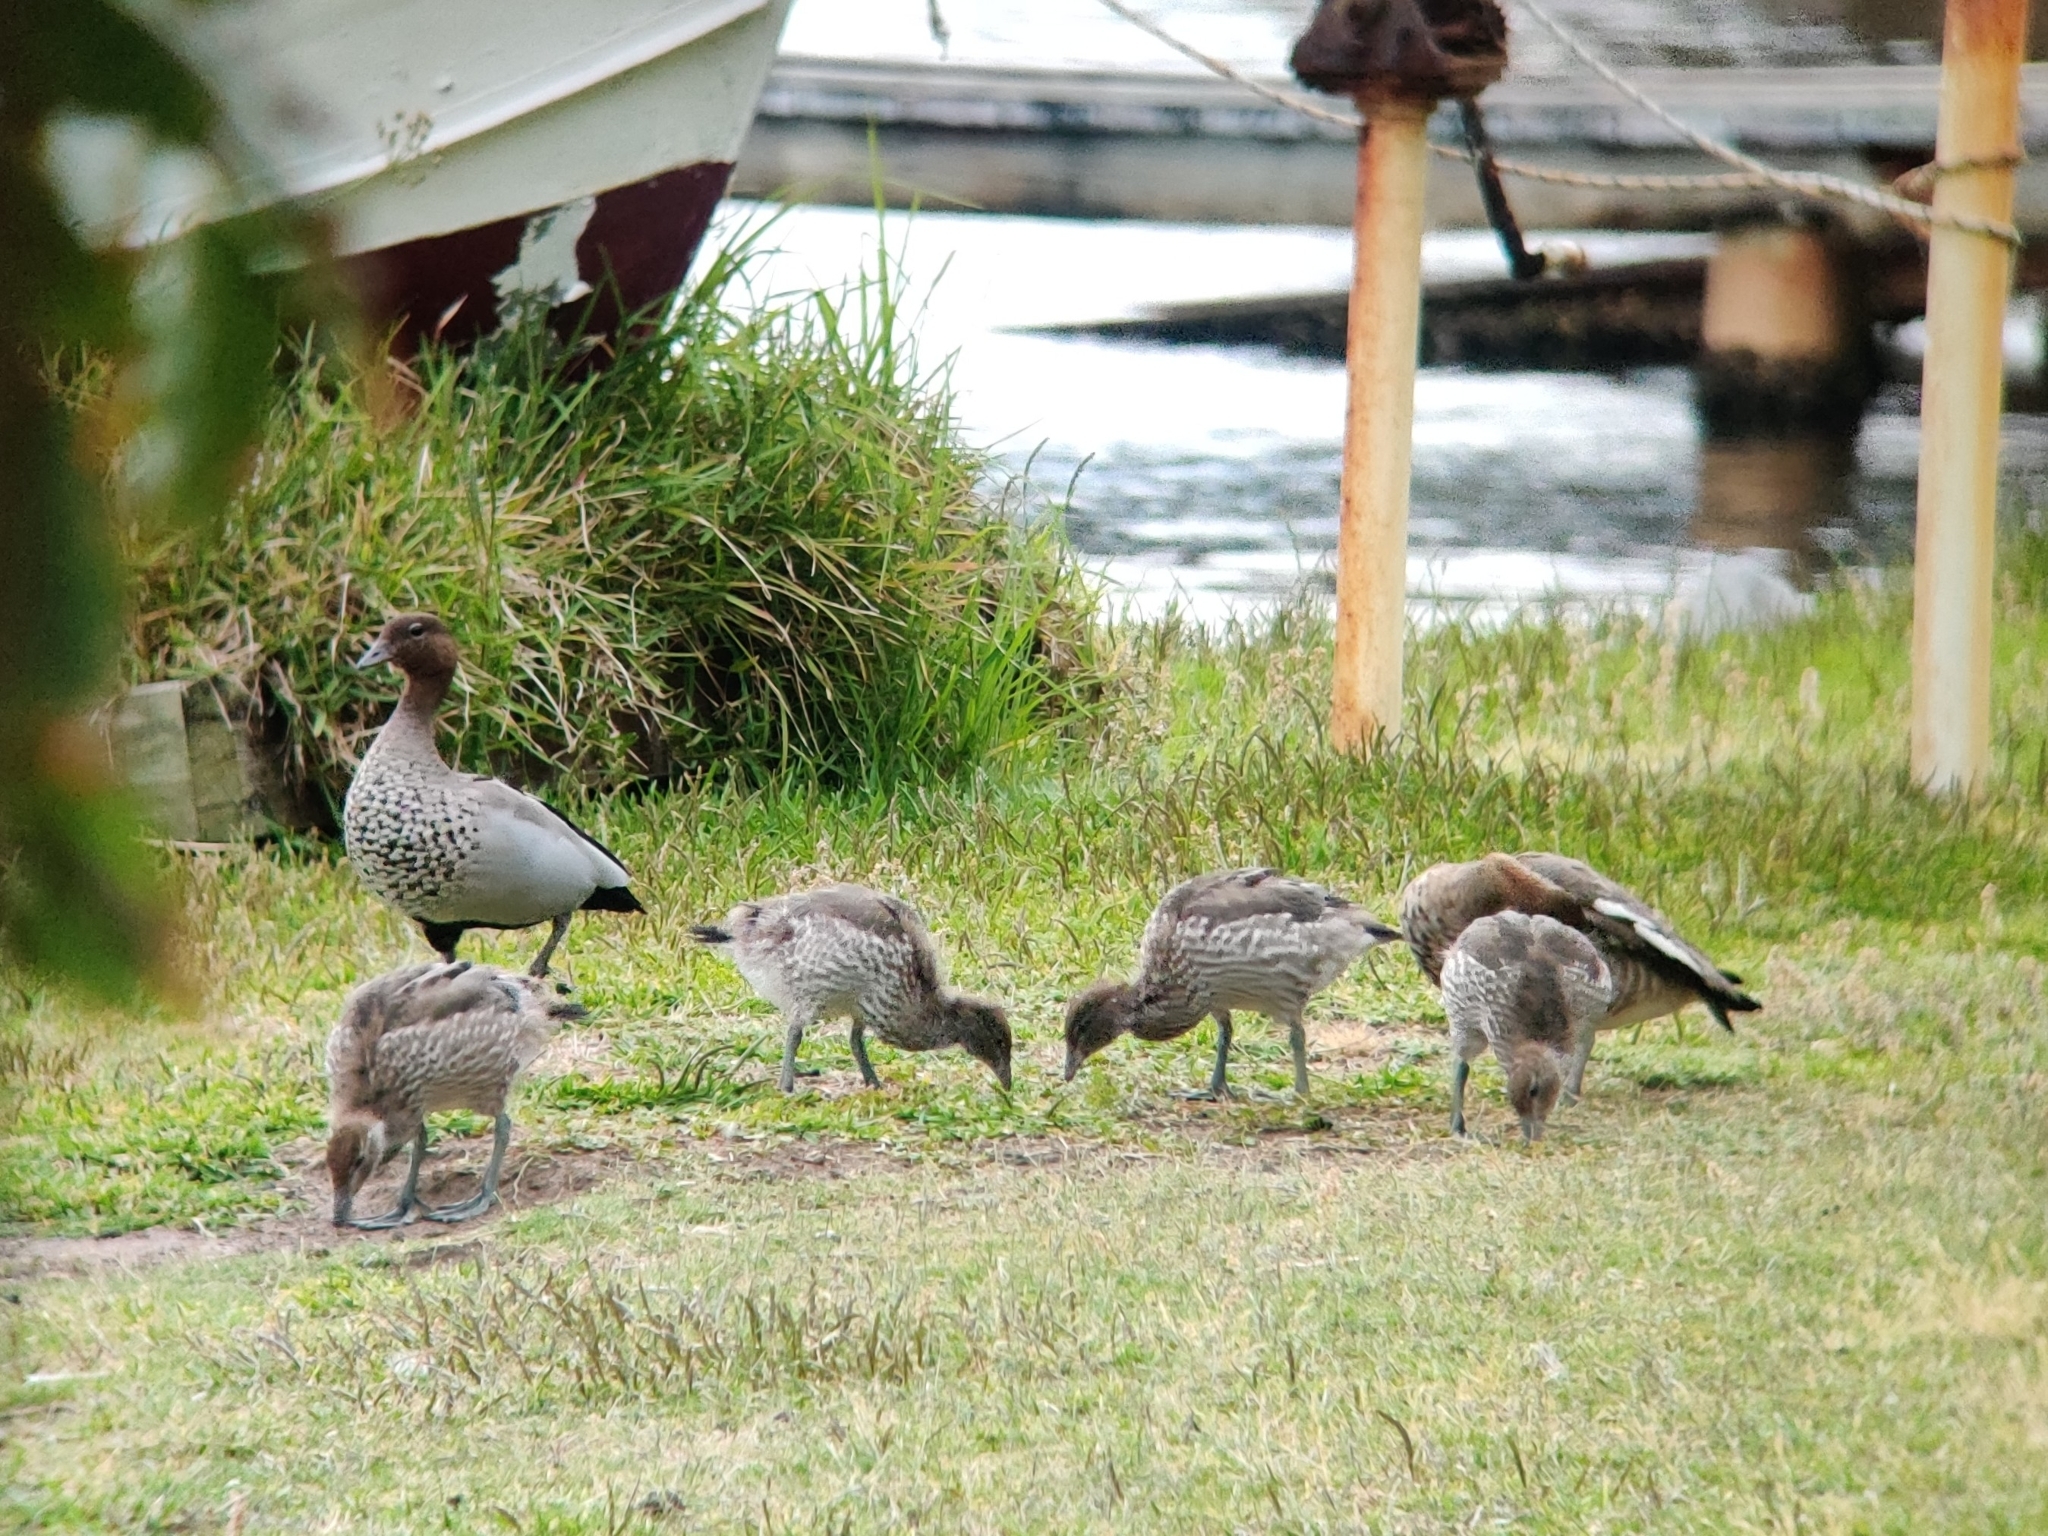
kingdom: Animalia
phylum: Chordata
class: Aves
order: Anseriformes
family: Anatidae
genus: Chenonetta
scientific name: Chenonetta jubata
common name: Maned duck
